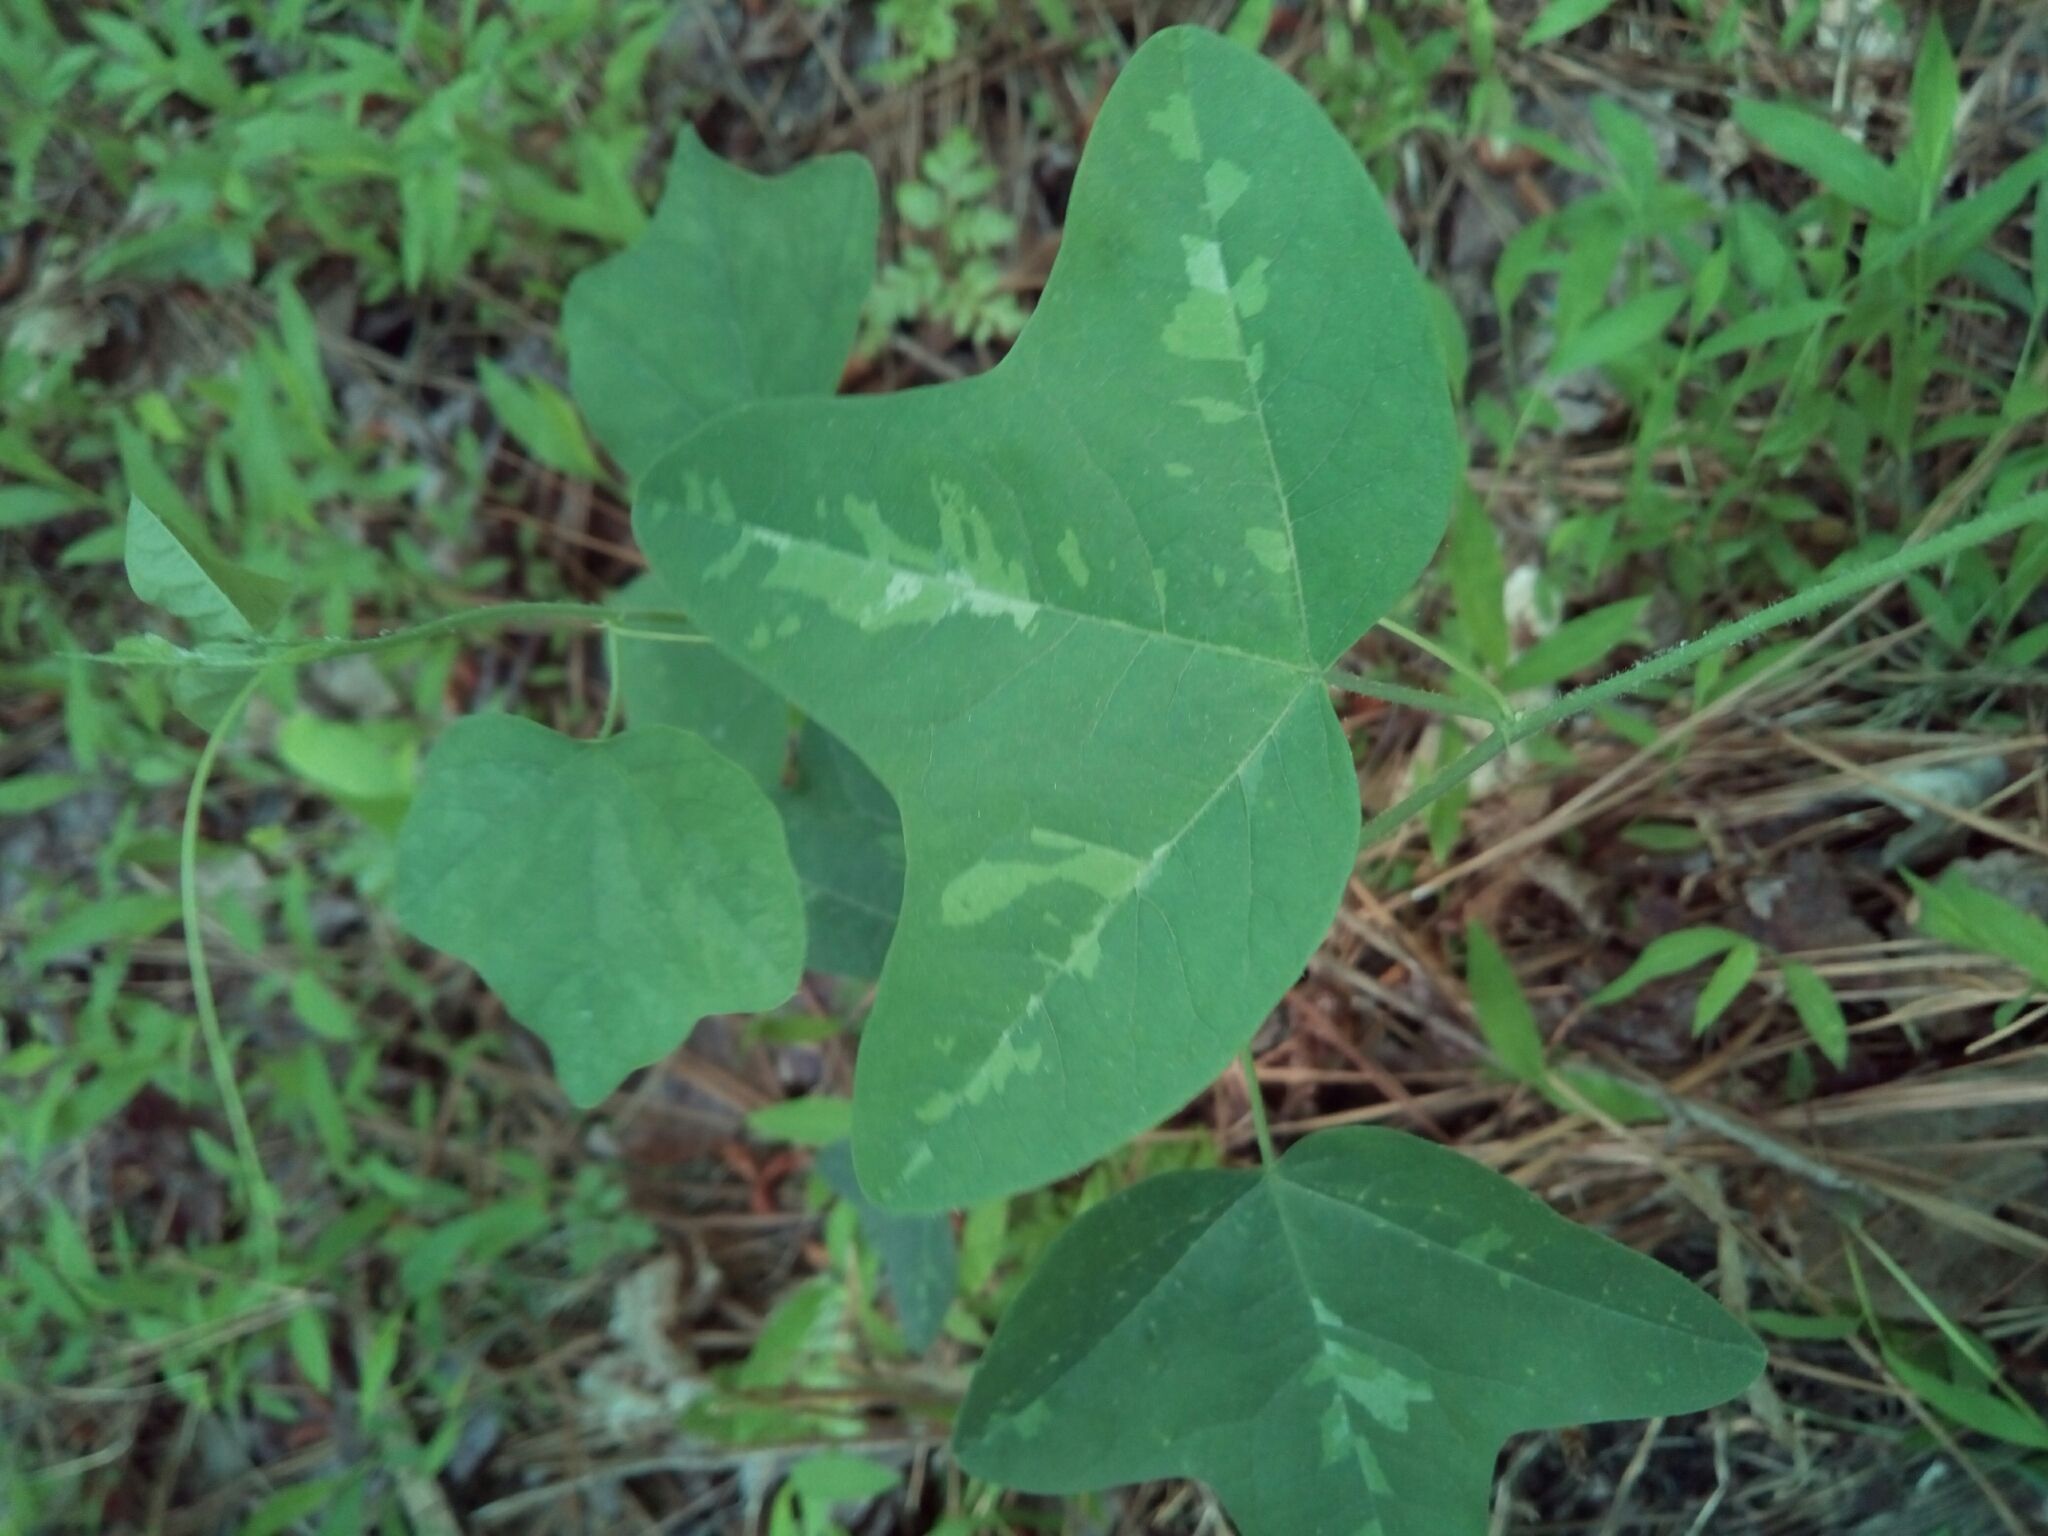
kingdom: Plantae
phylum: Tracheophyta
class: Magnoliopsida
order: Malpighiales
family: Passifloraceae
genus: Passiflora
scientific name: Passiflora lutea
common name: Yellow passionflower
